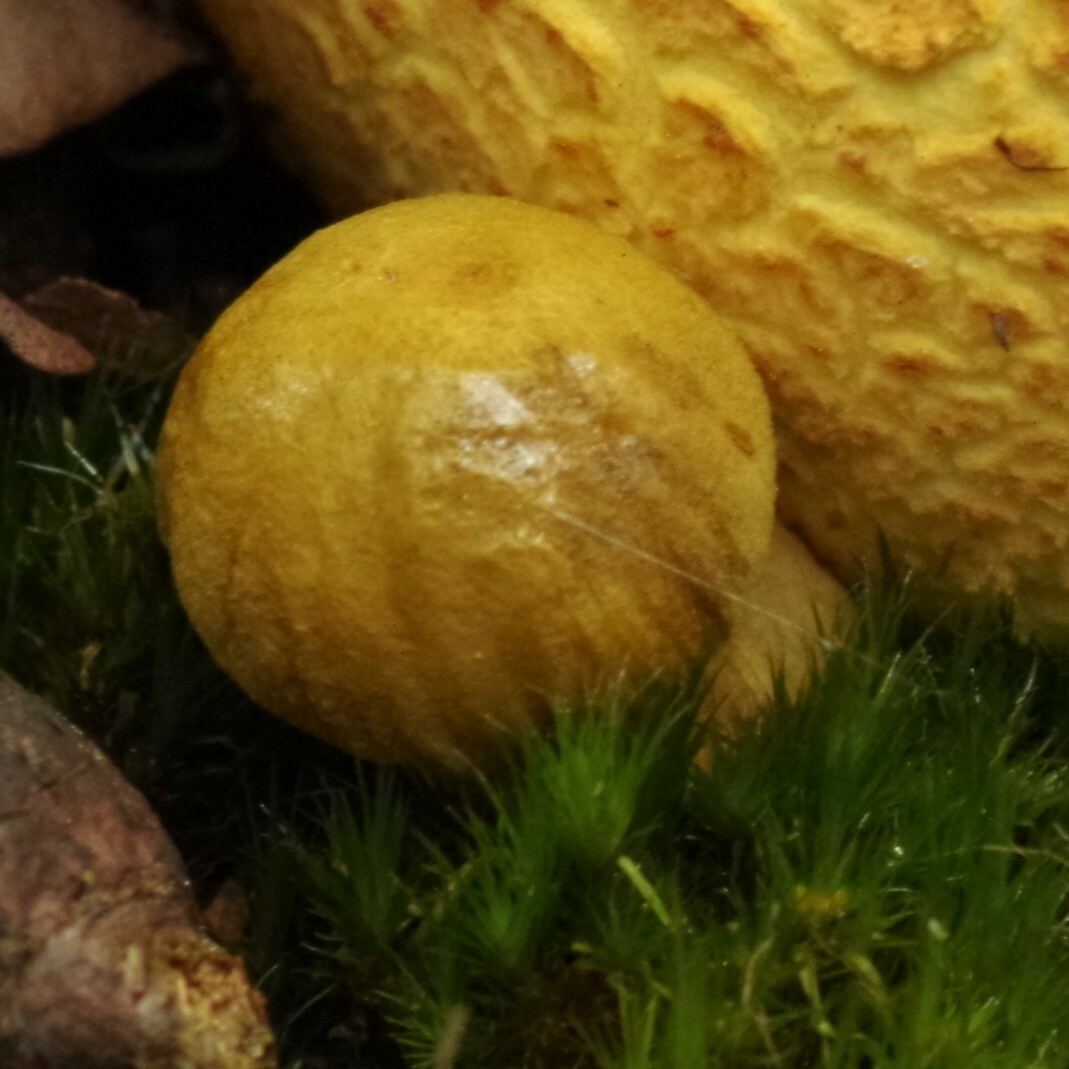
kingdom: Fungi
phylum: Basidiomycota
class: Agaricomycetes
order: Boletales
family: Boletaceae
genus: Pseudoboletus
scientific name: Pseudoboletus parasiticus
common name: Parasitic bolete
